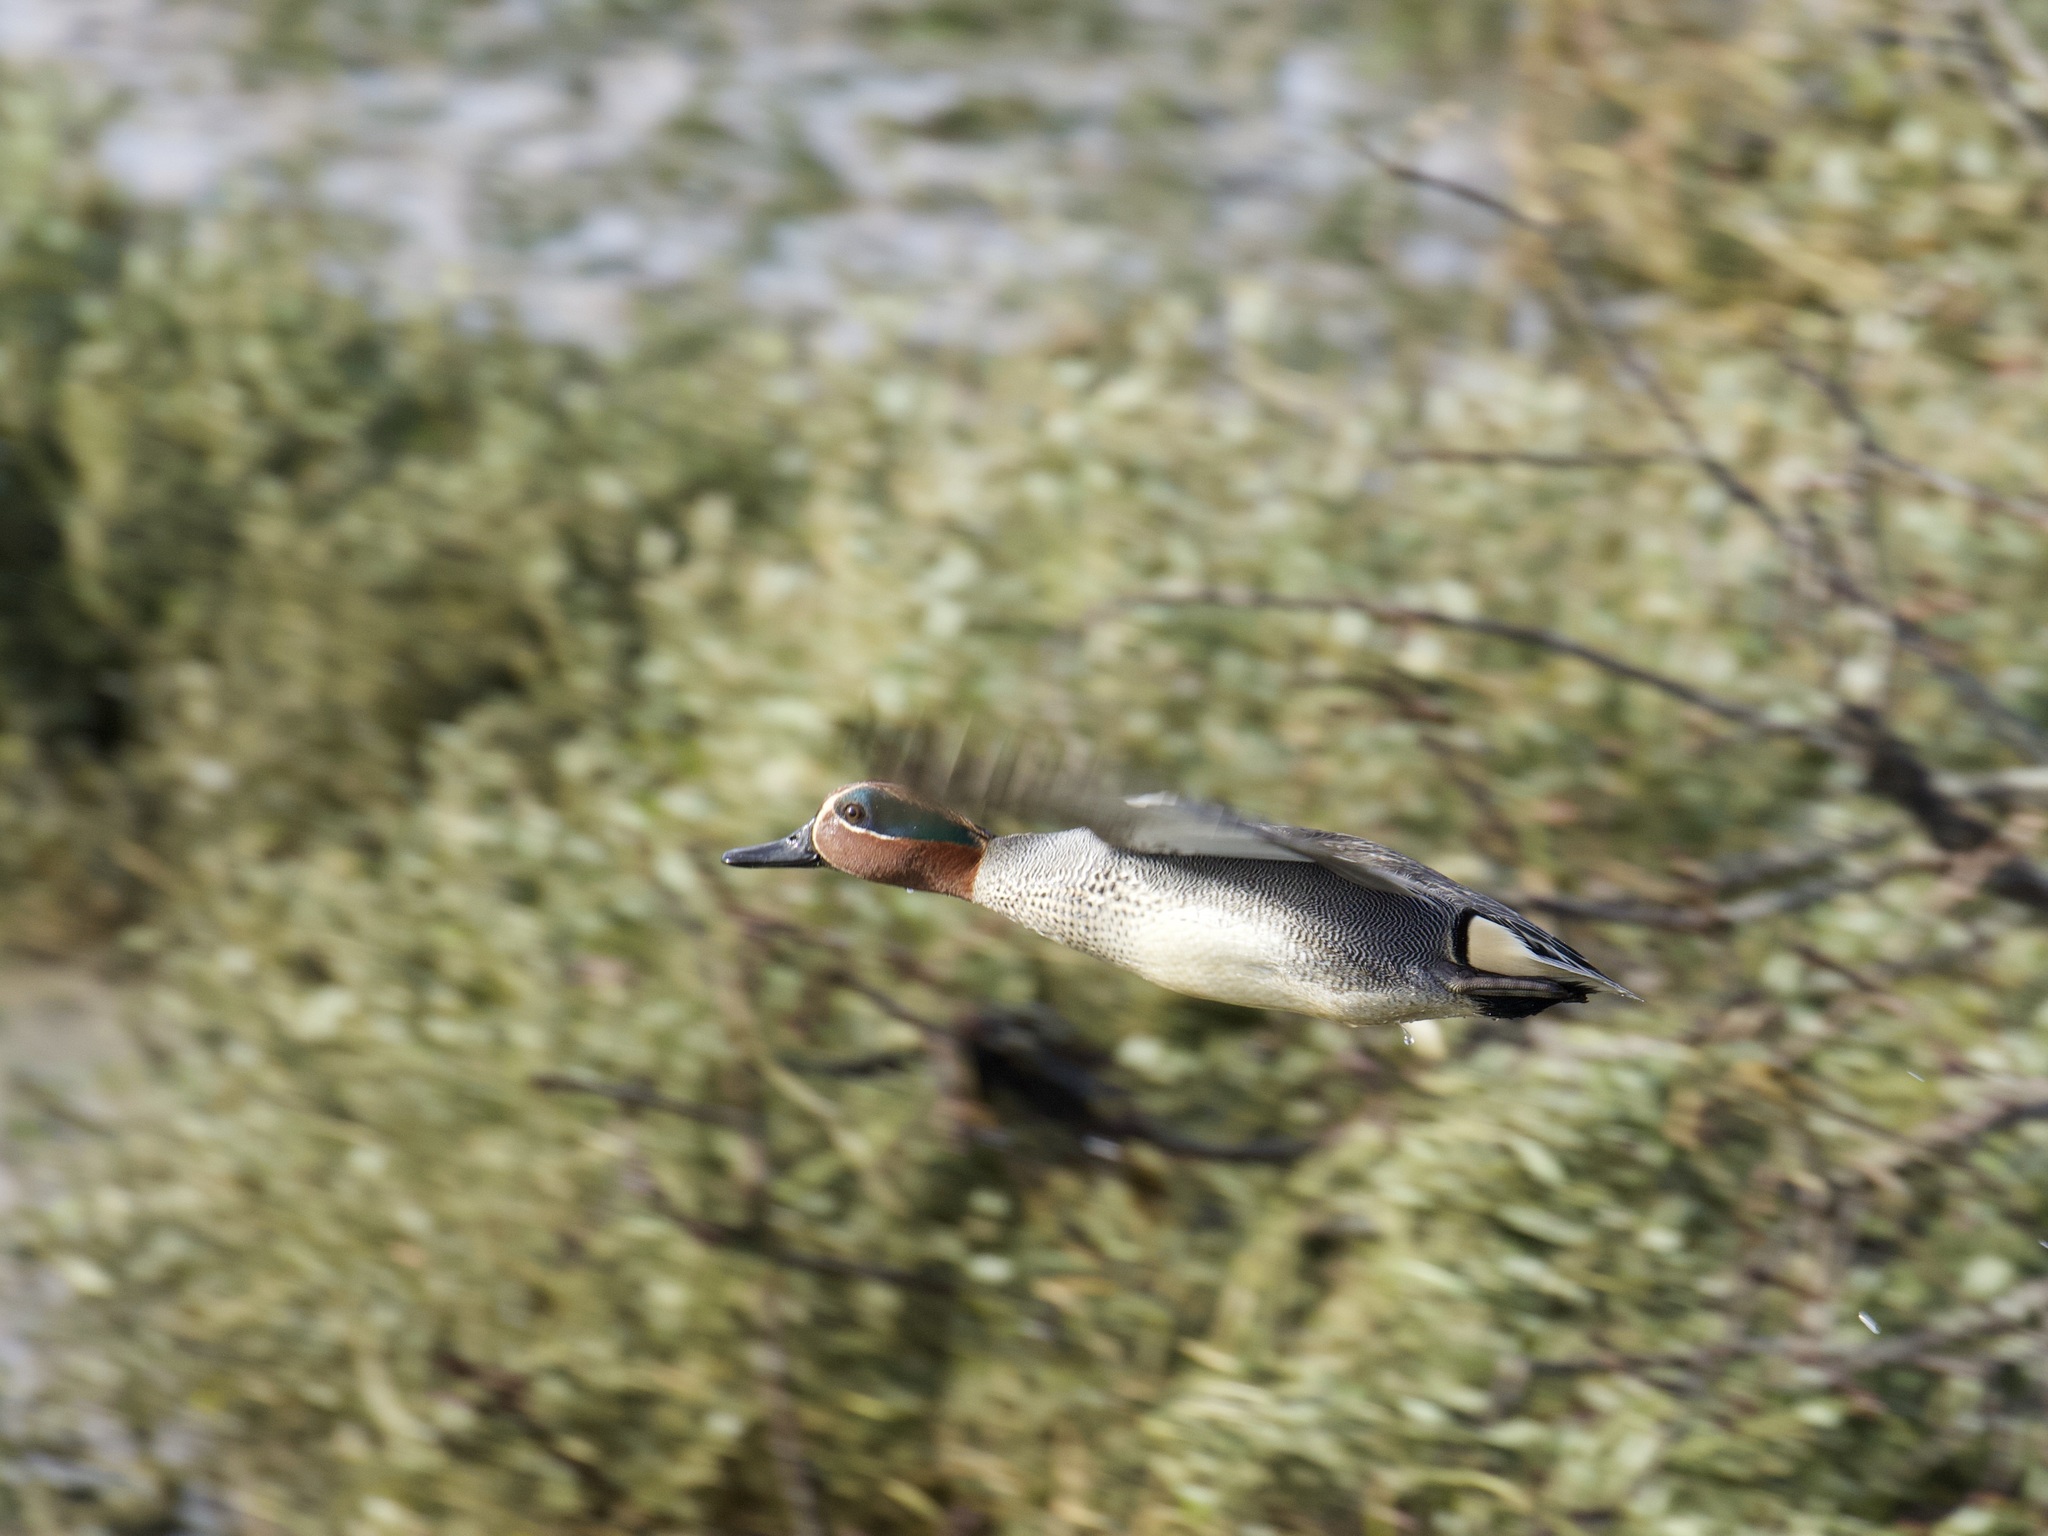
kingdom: Animalia
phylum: Chordata
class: Aves
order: Anseriformes
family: Anatidae
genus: Anas
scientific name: Anas crecca
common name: Eurasian teal
